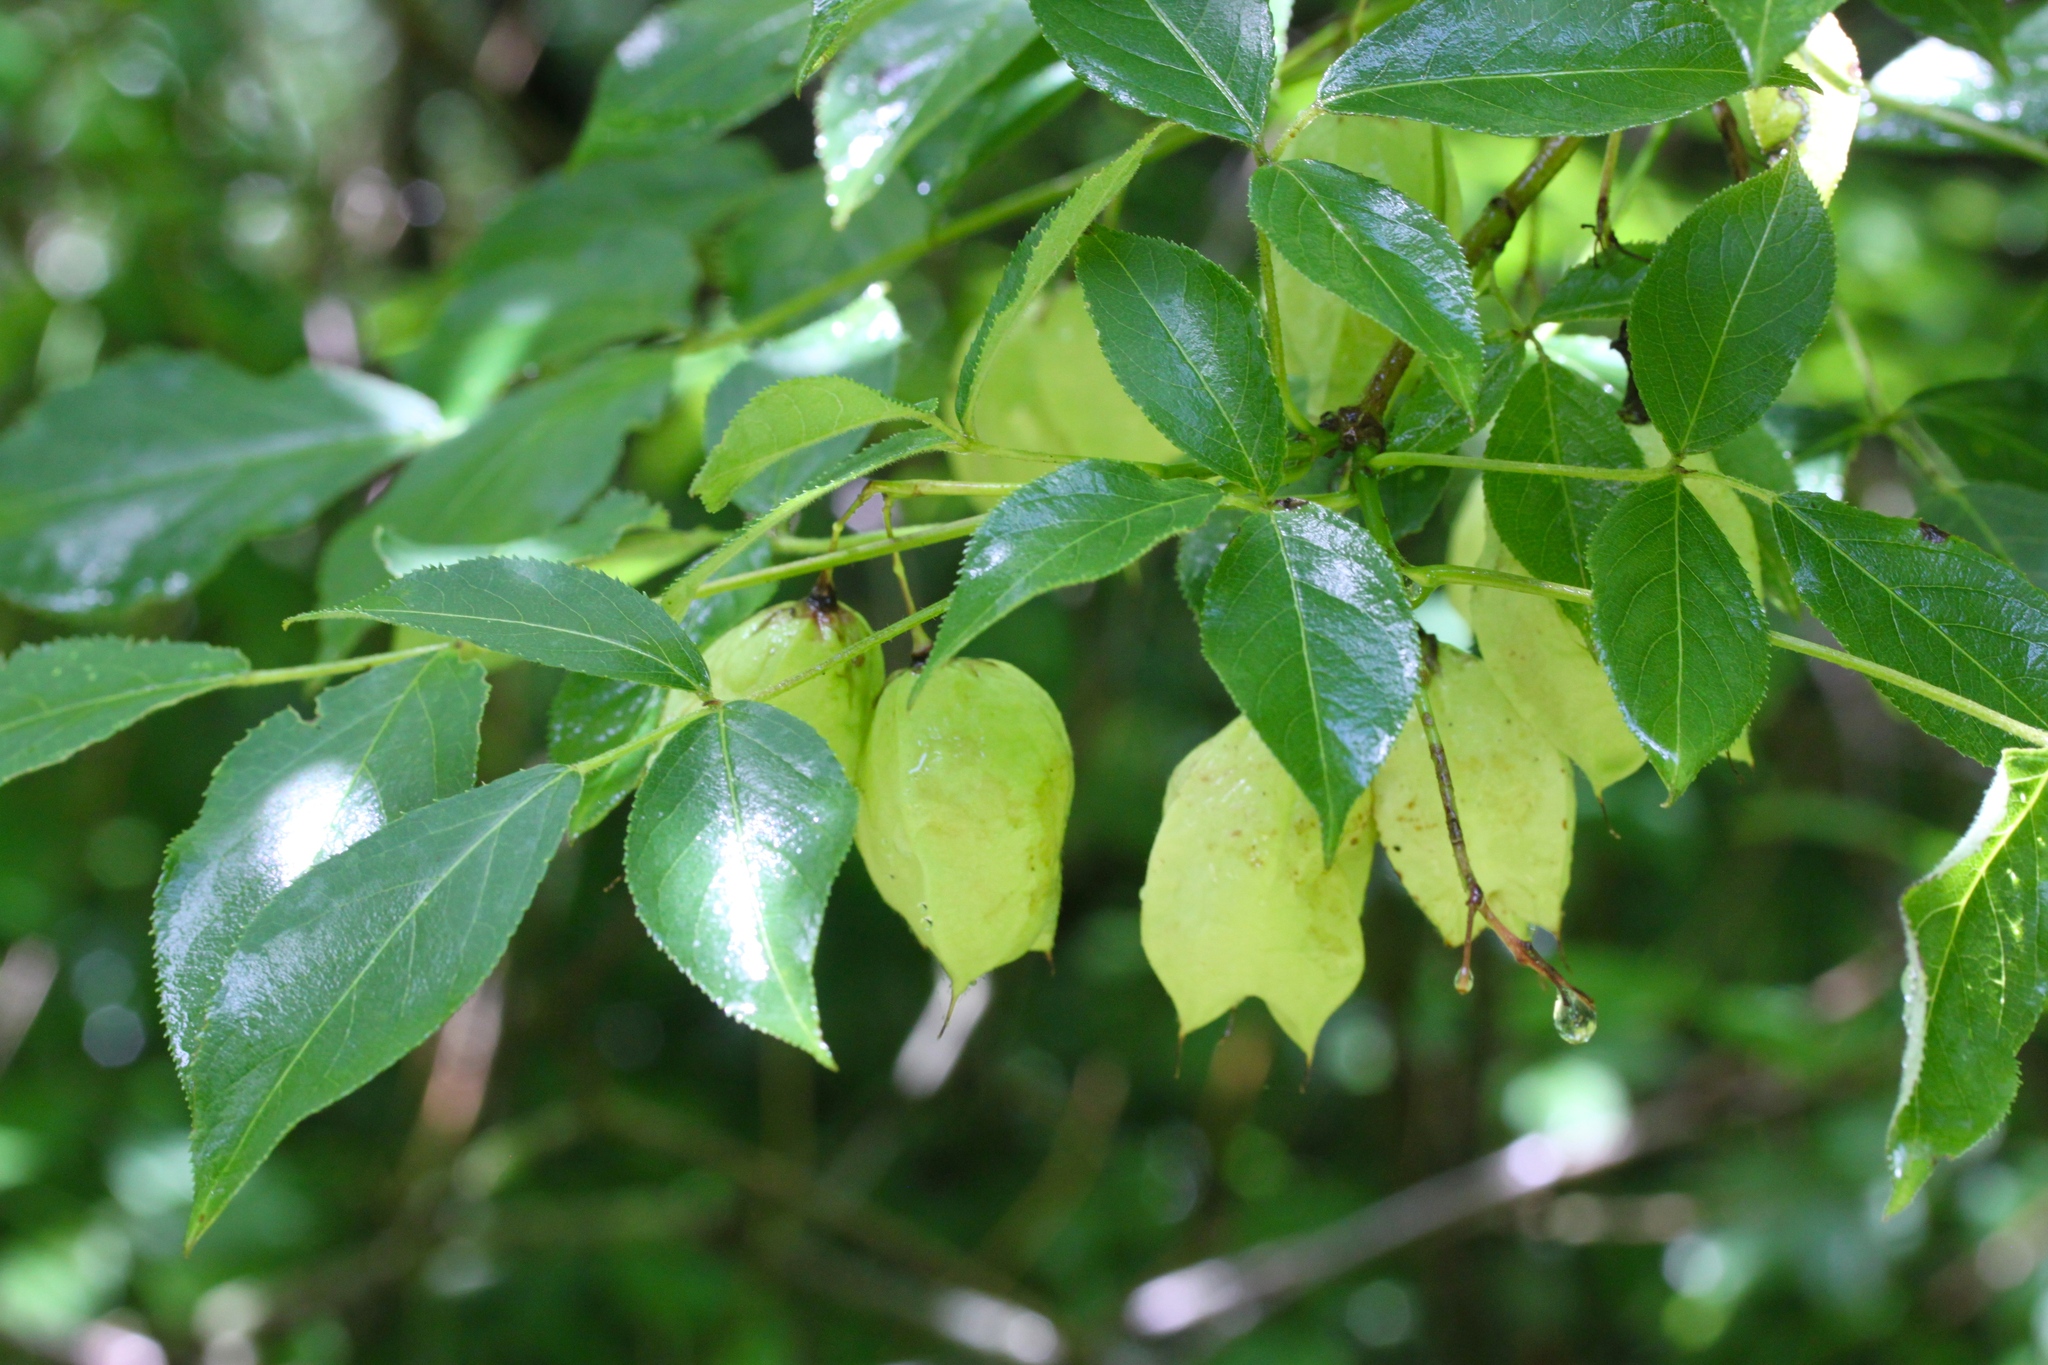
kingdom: Plantae
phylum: Tracheophyta
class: Magnoliopsida
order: Crossosomatales
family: Staphyleaceae
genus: Staphylea
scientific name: Staphylea trifolia
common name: American bladdernut
